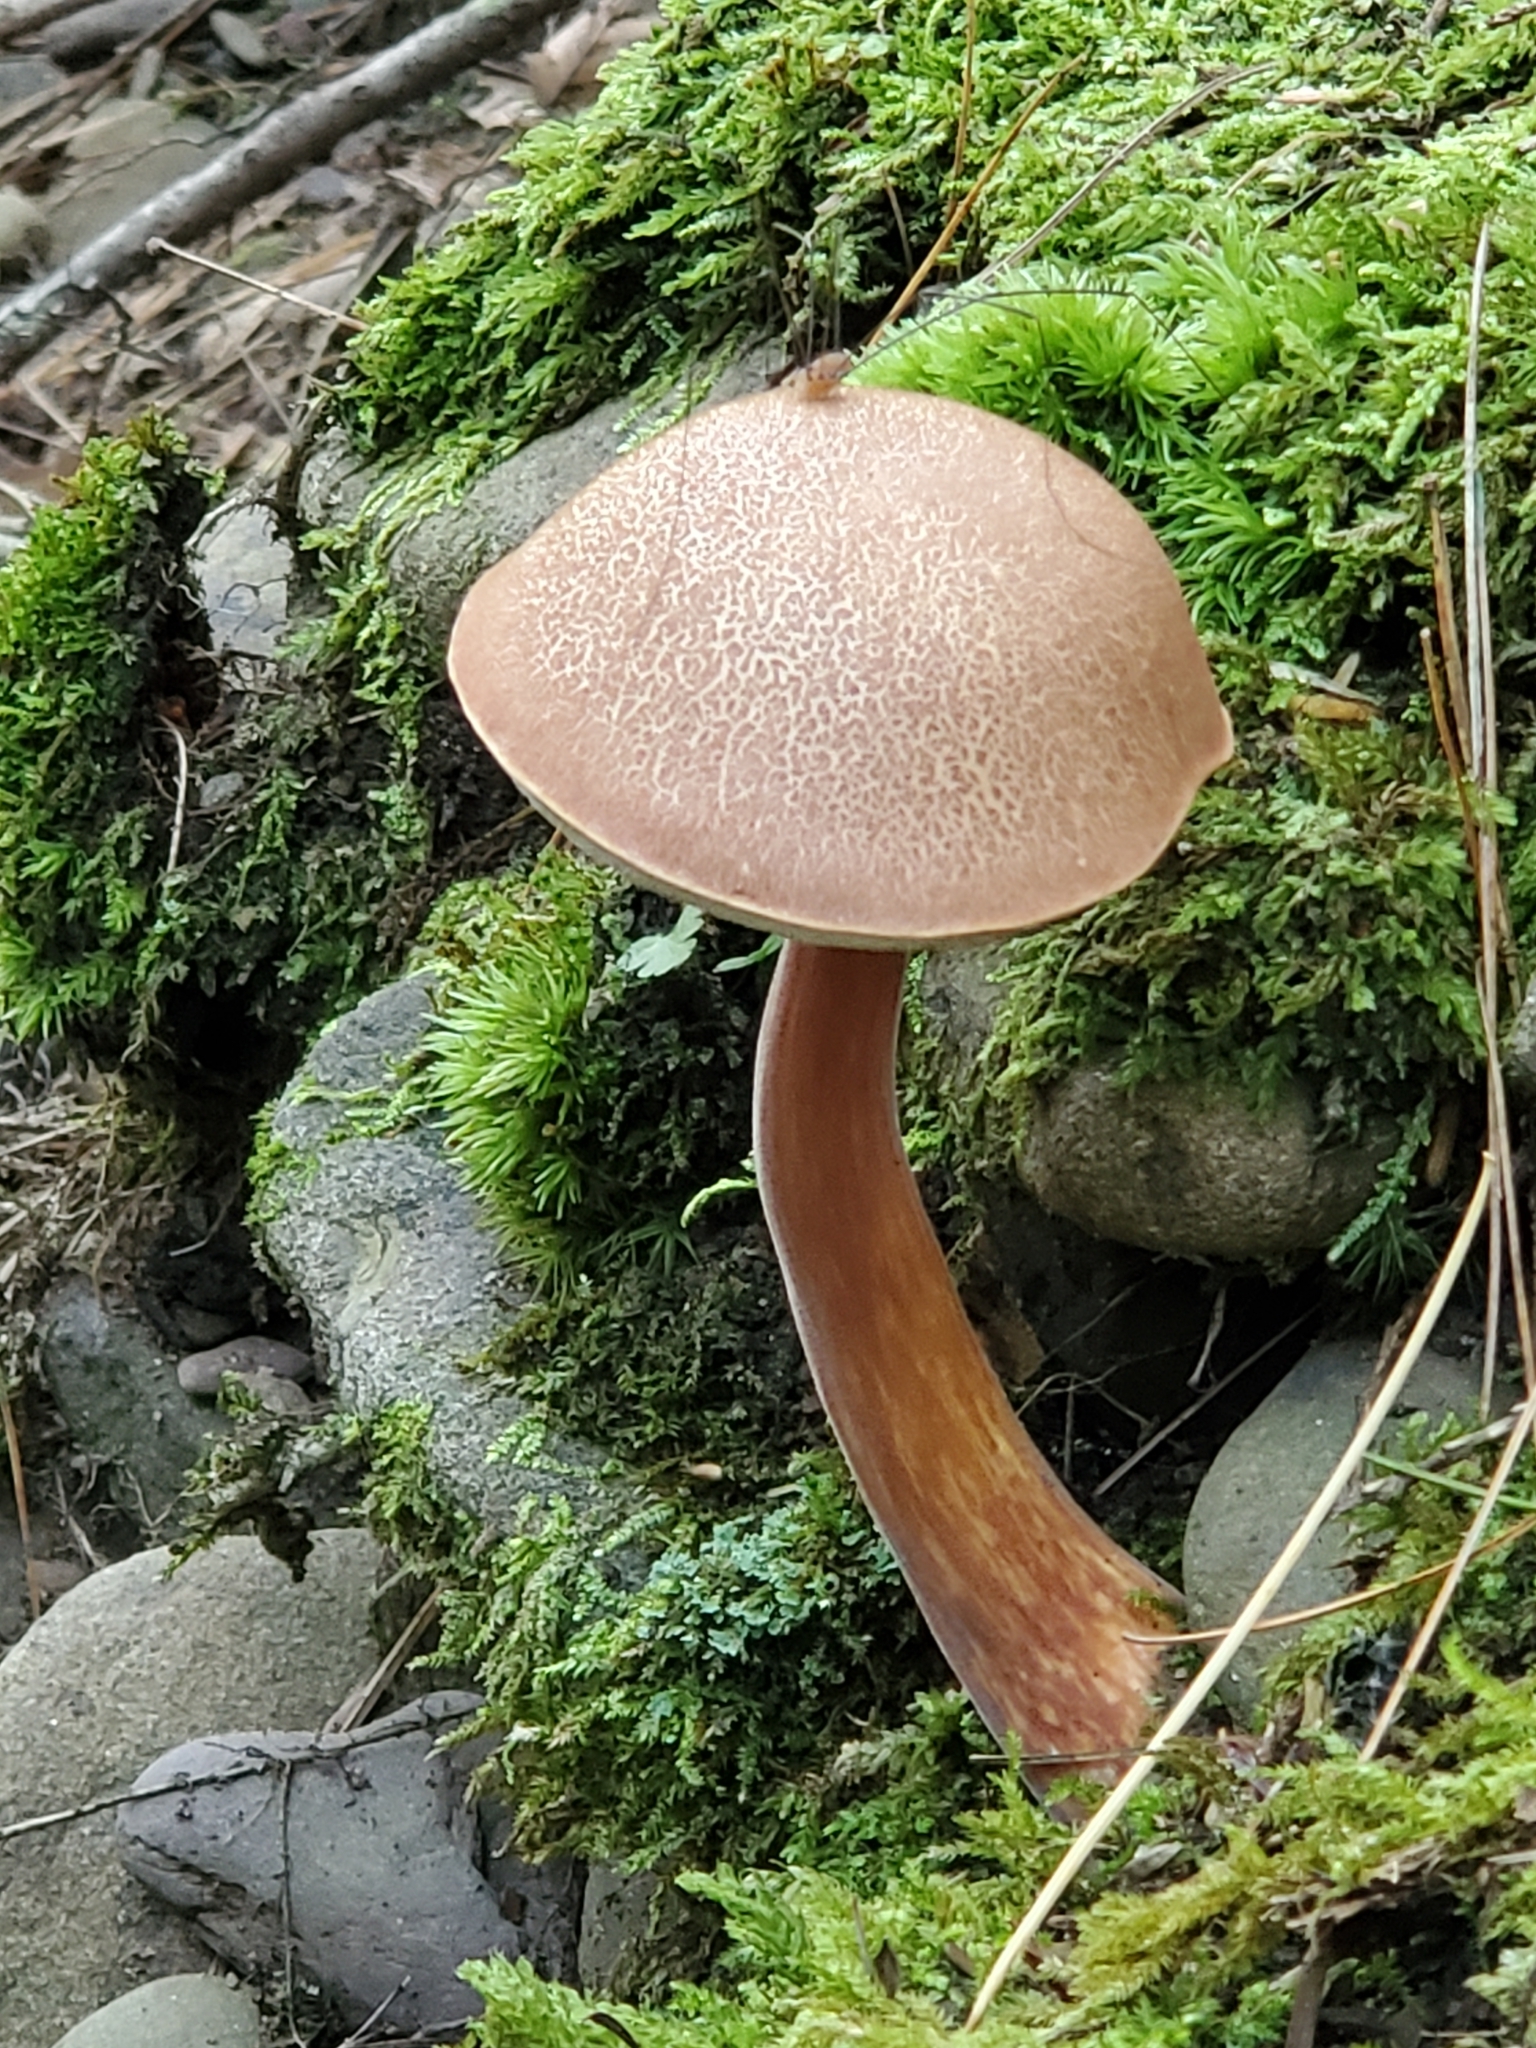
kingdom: Fungi
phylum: Basidiomycota
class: Agaricomycetes
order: Boletales
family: Boletaceae
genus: Austroboletus
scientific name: Austroboletus gracilis
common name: Graceful bolete
